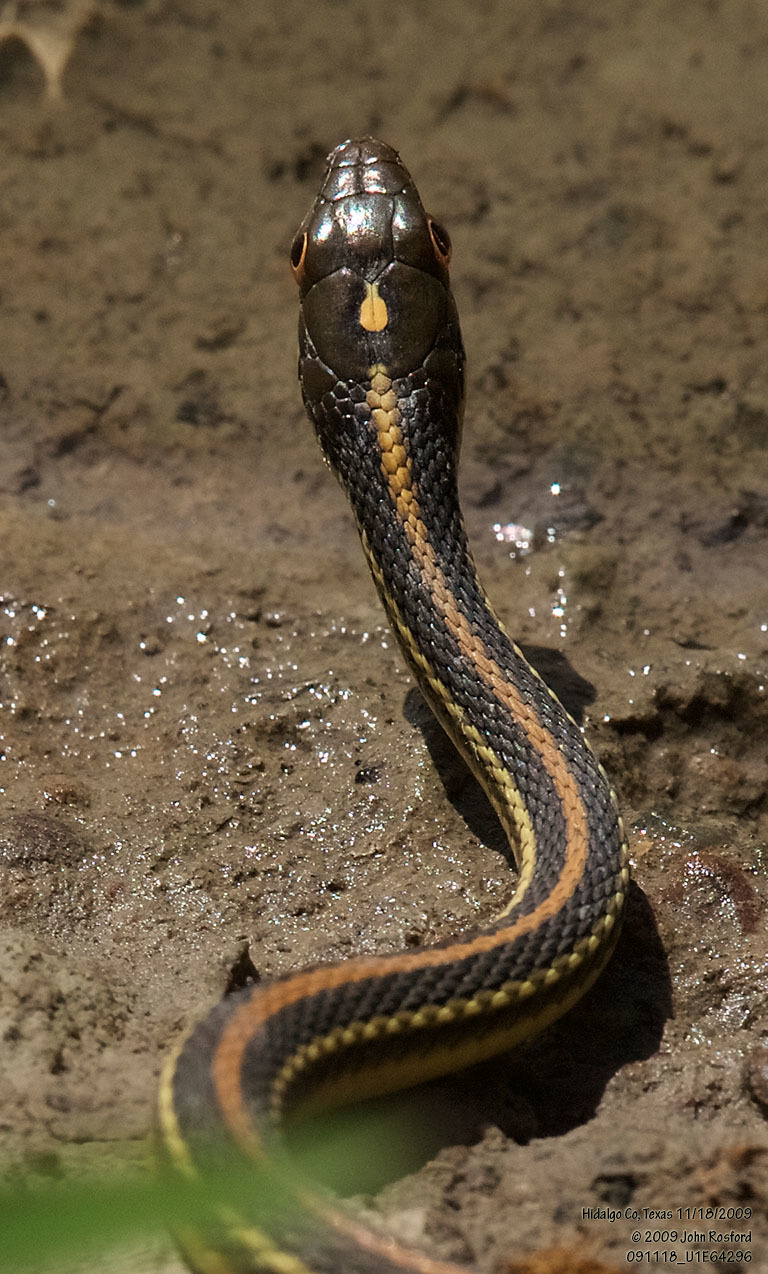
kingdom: Animalia
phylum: Chordata
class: Squamata
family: Colubridae
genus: Thamnophis
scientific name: Thamnophis proximus
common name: Western ribbon snake
